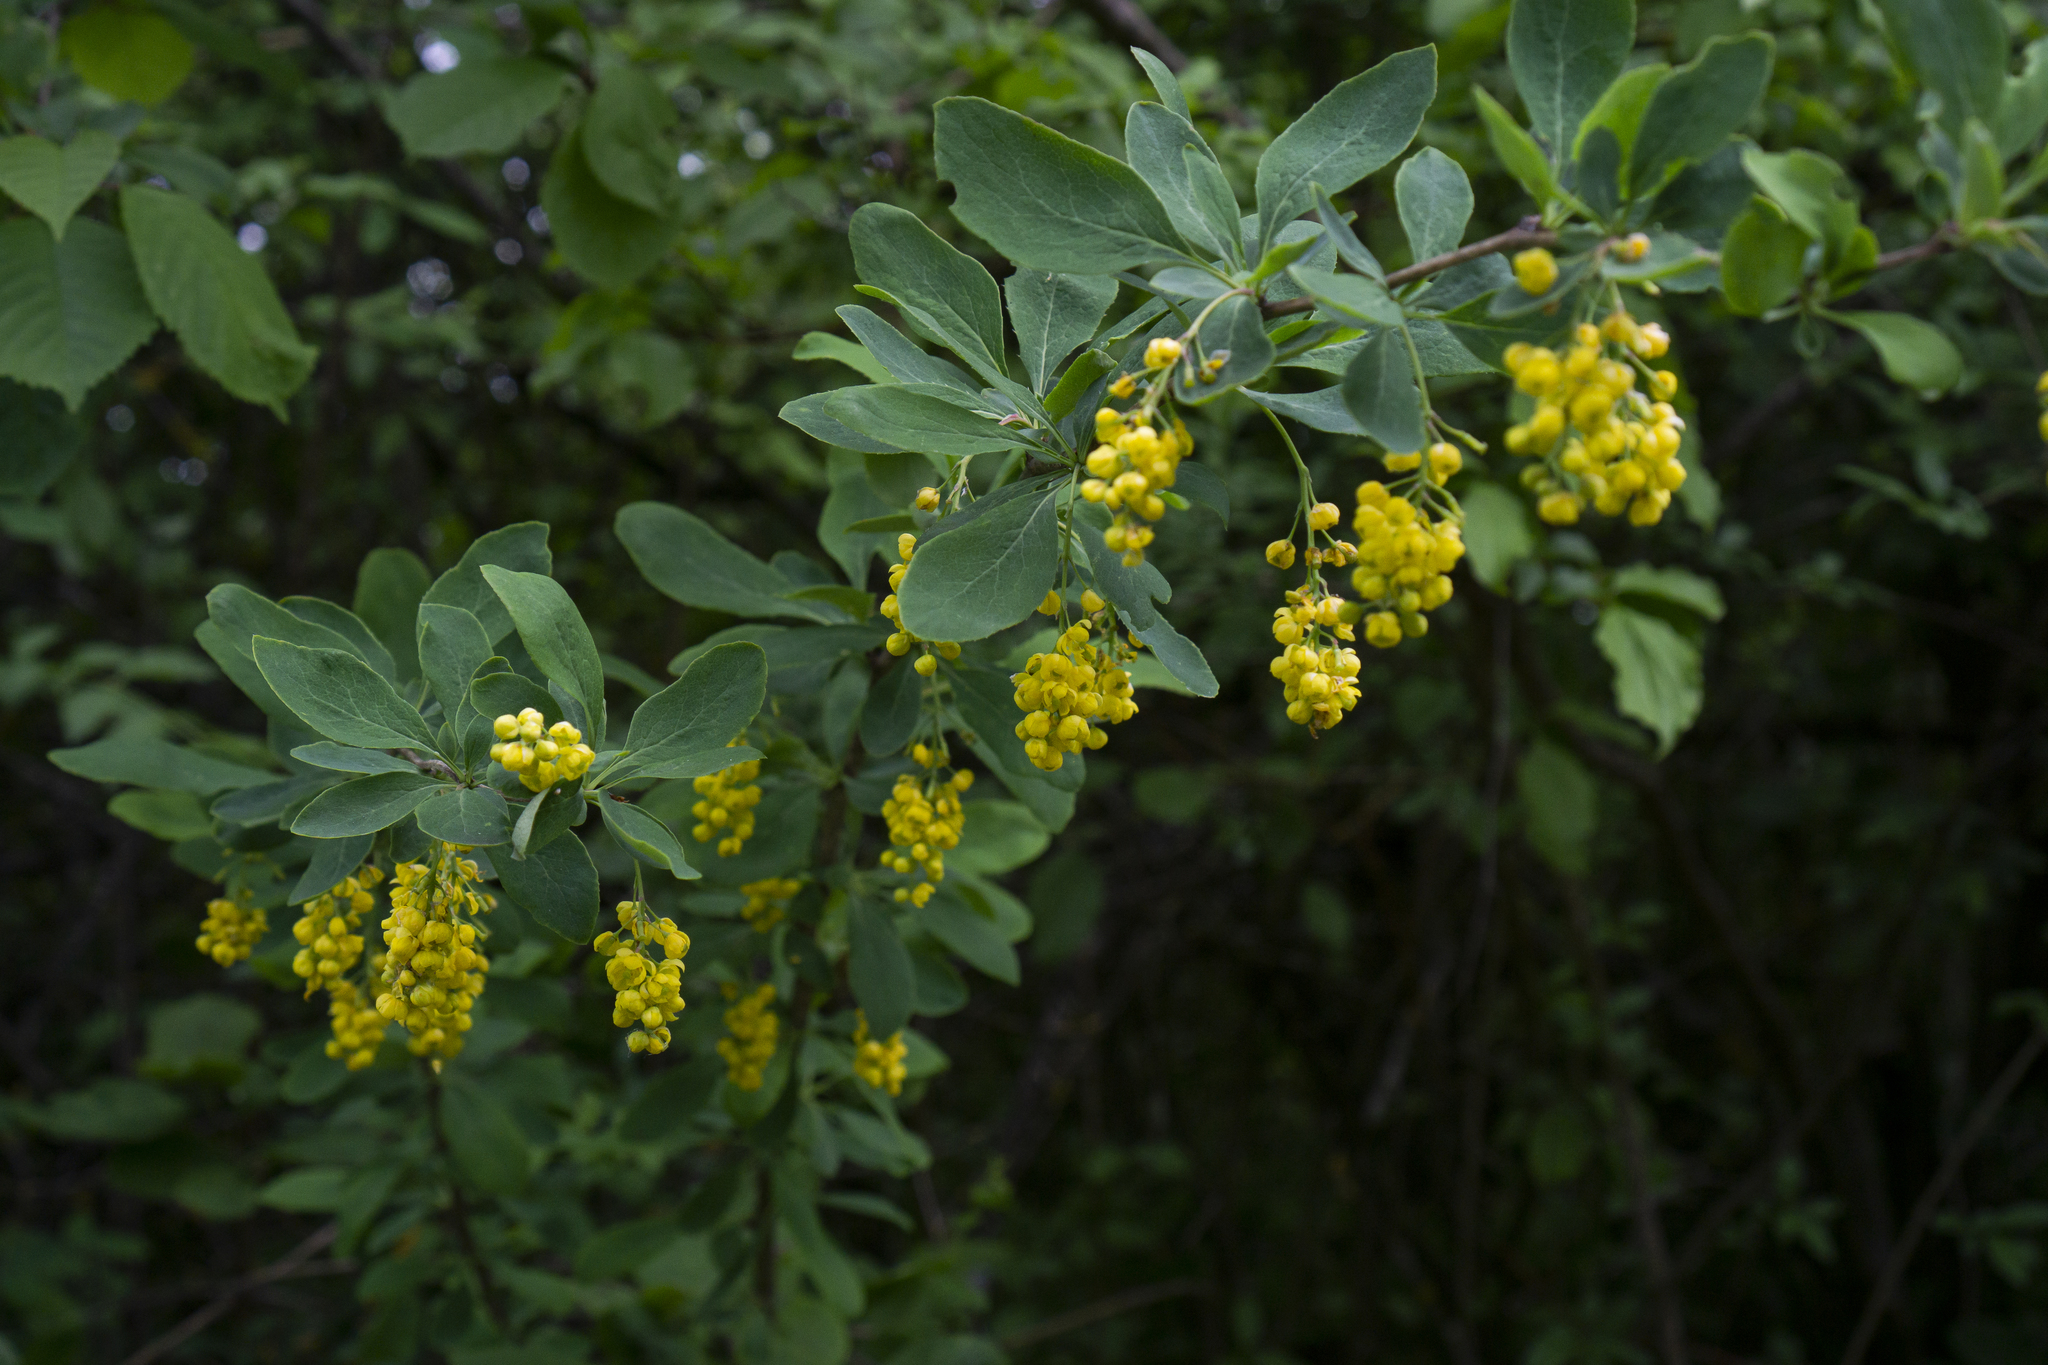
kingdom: Plantae
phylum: Tracheophyta
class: Magnoliopsida
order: Ranunculales
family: Berberidaceae
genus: Berberis
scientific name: Berberis vulgaris
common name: Barberry
